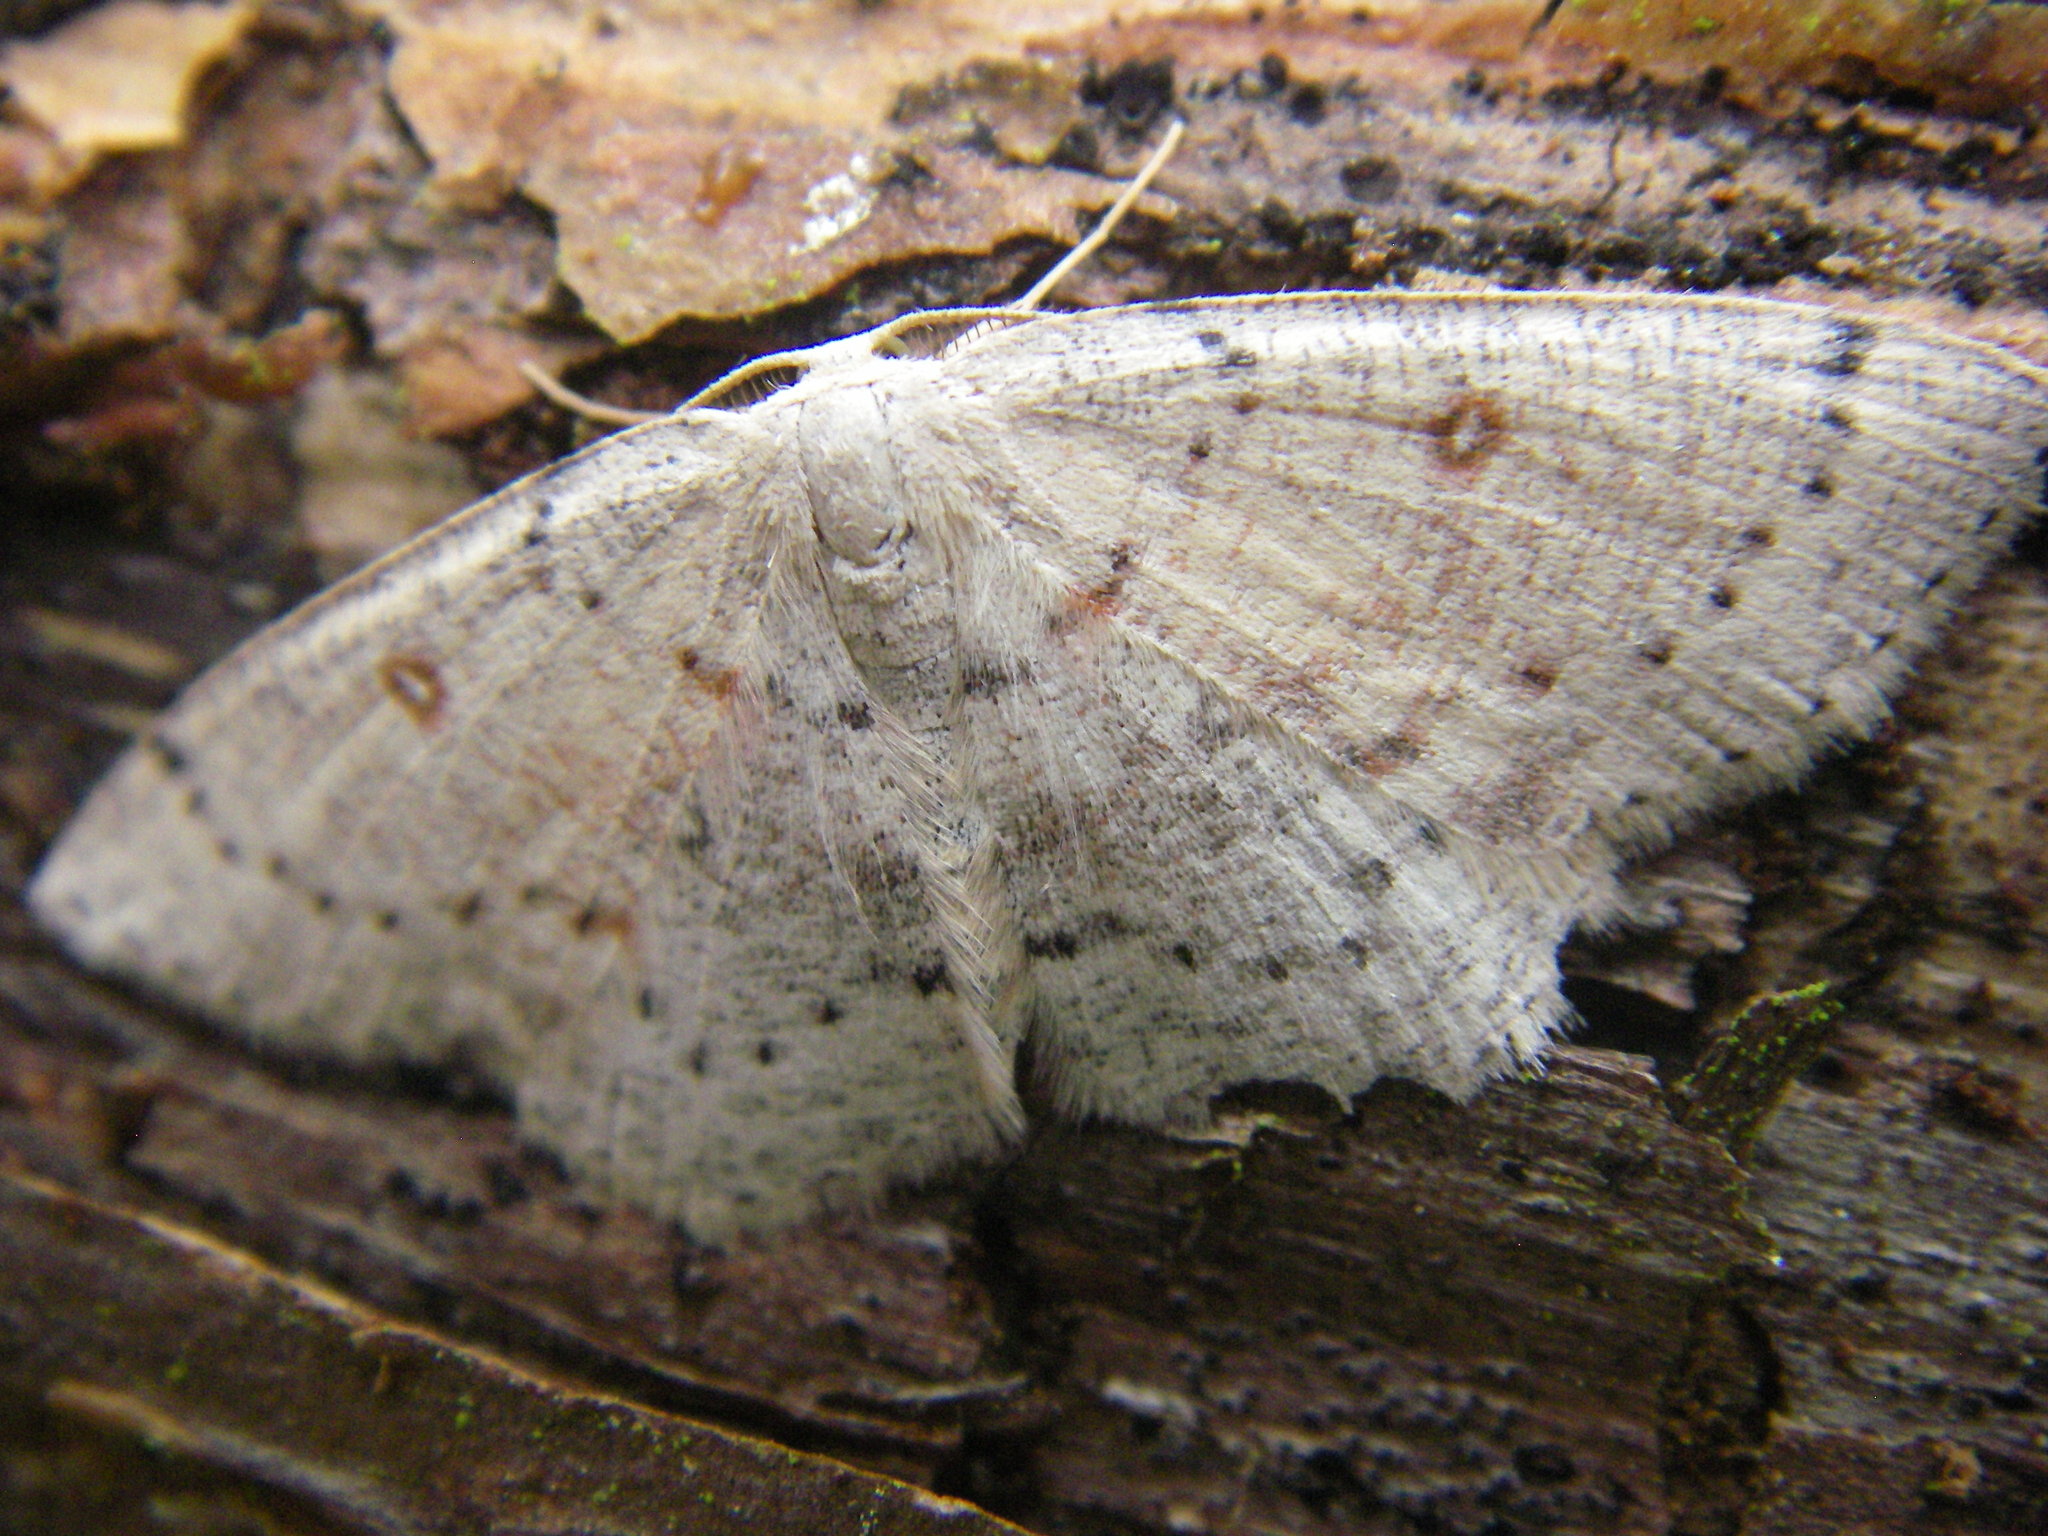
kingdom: Animalia
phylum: Arthropoda
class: Insecta
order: Lepidoptera
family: Geometridae
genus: Cyclophora
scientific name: Cyclophora albipunctata
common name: Birch mocha
